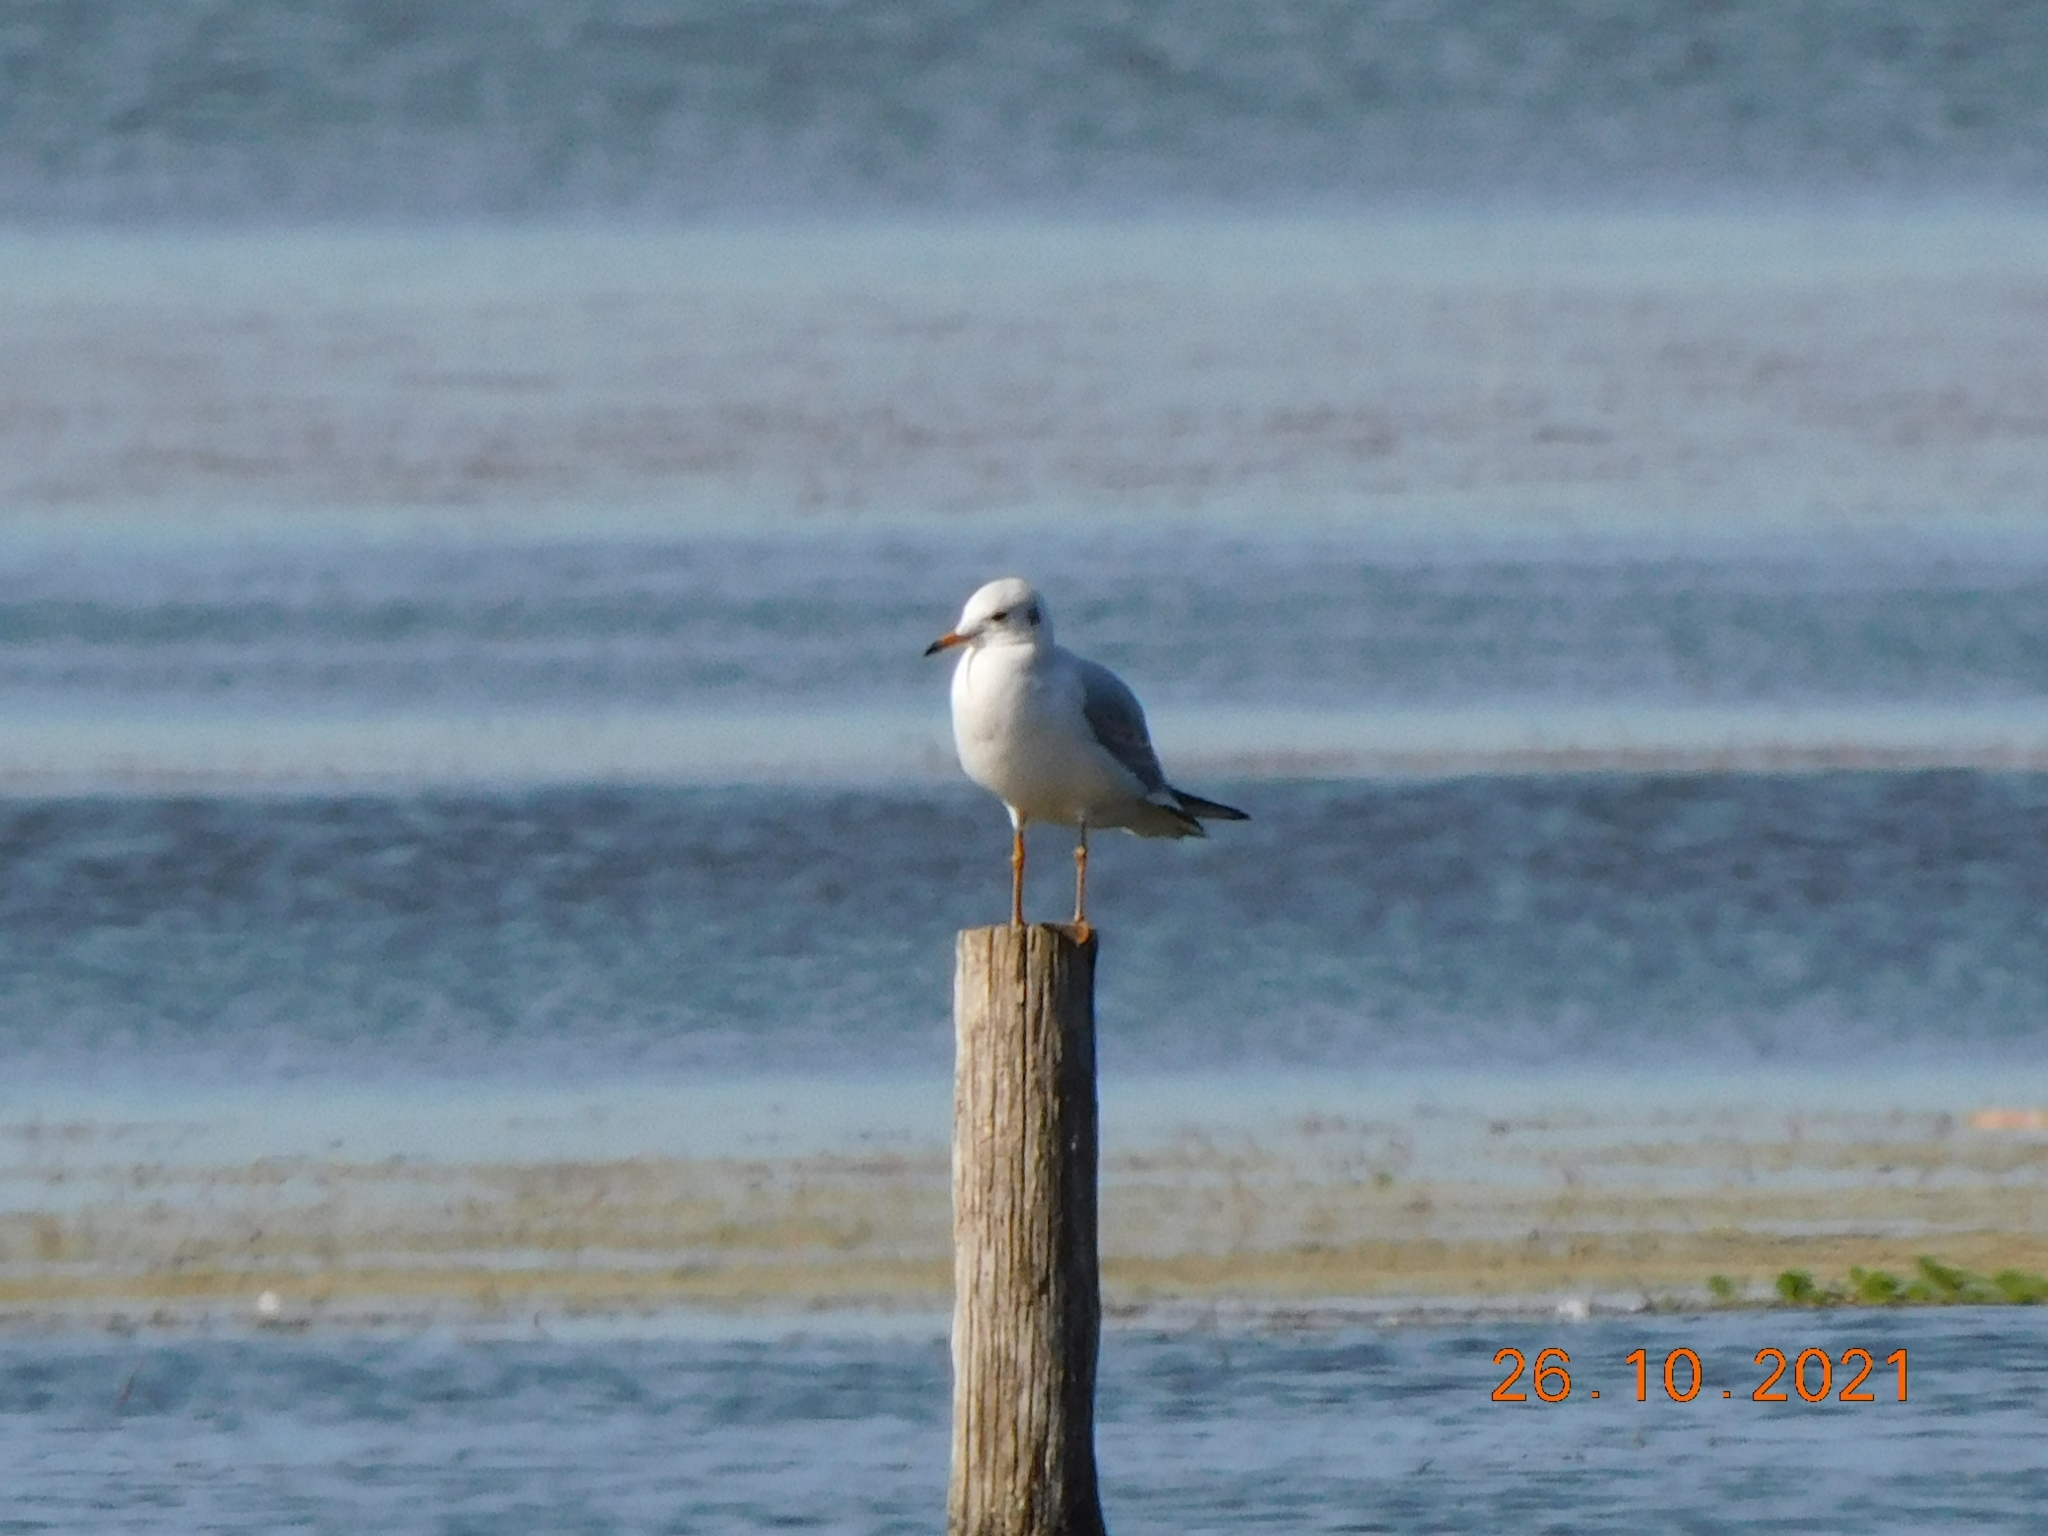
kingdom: Animalia
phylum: Chordata
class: Aves
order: Charadriiformes
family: Laridae
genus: Chroicocephalus
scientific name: Chroicocephalus ridibundus
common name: Black-headed gull
